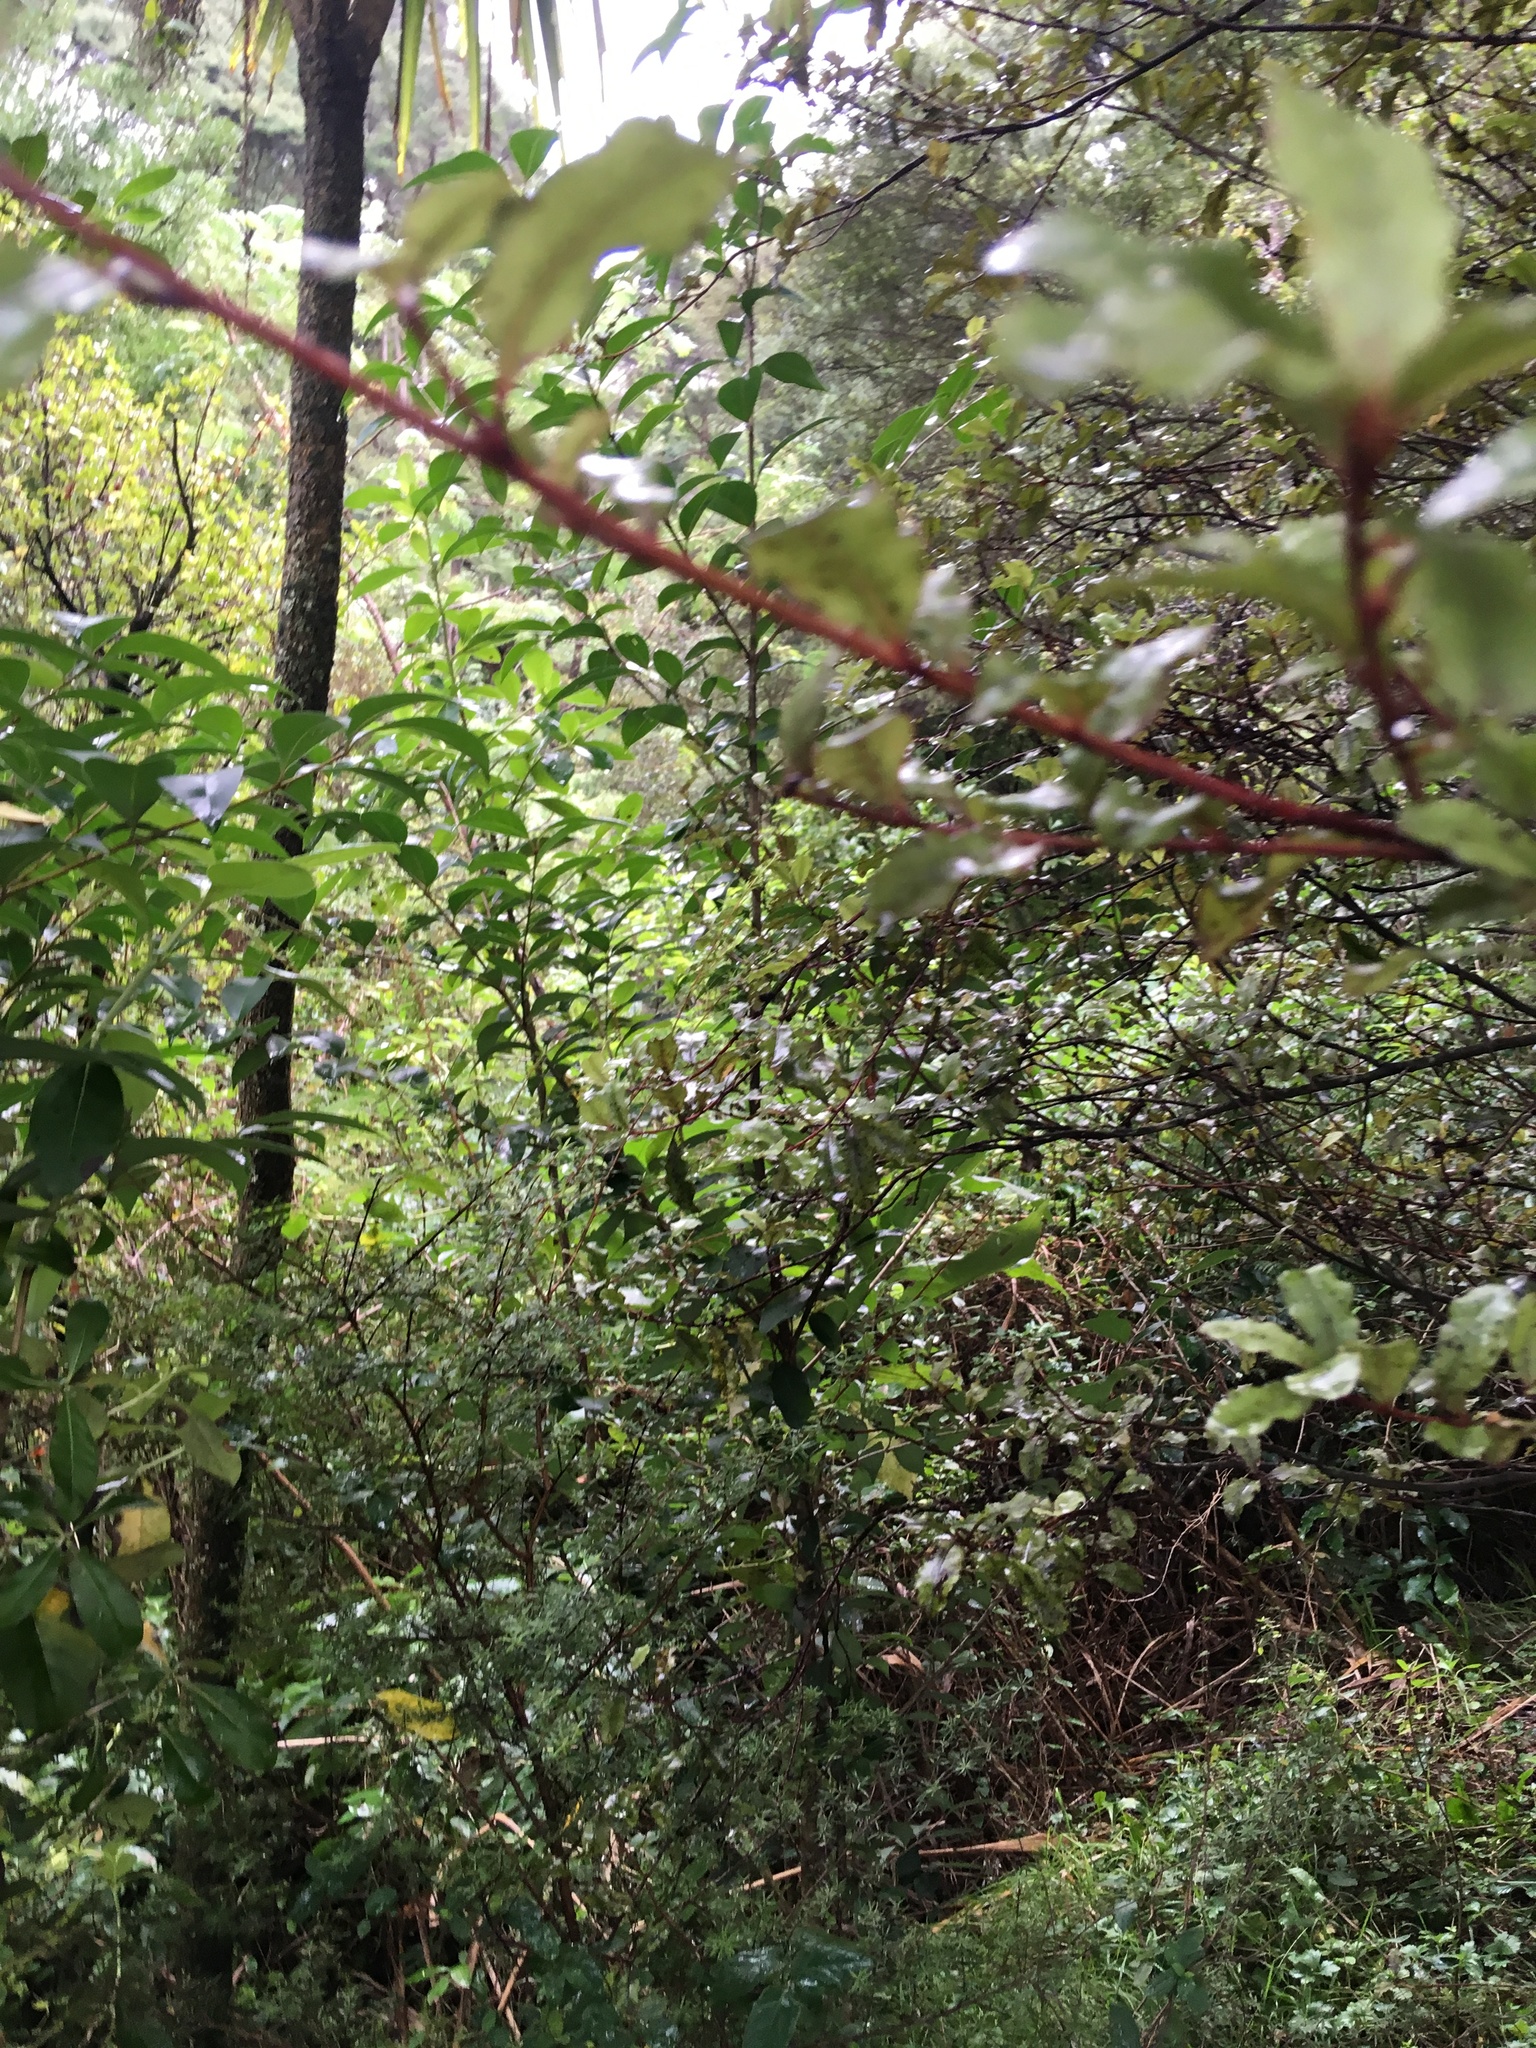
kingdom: Plantae
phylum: Tracheophyta
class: Magnoliopsida
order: Ericales
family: Primulaceae
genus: Myrsine
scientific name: Myrsine australis
